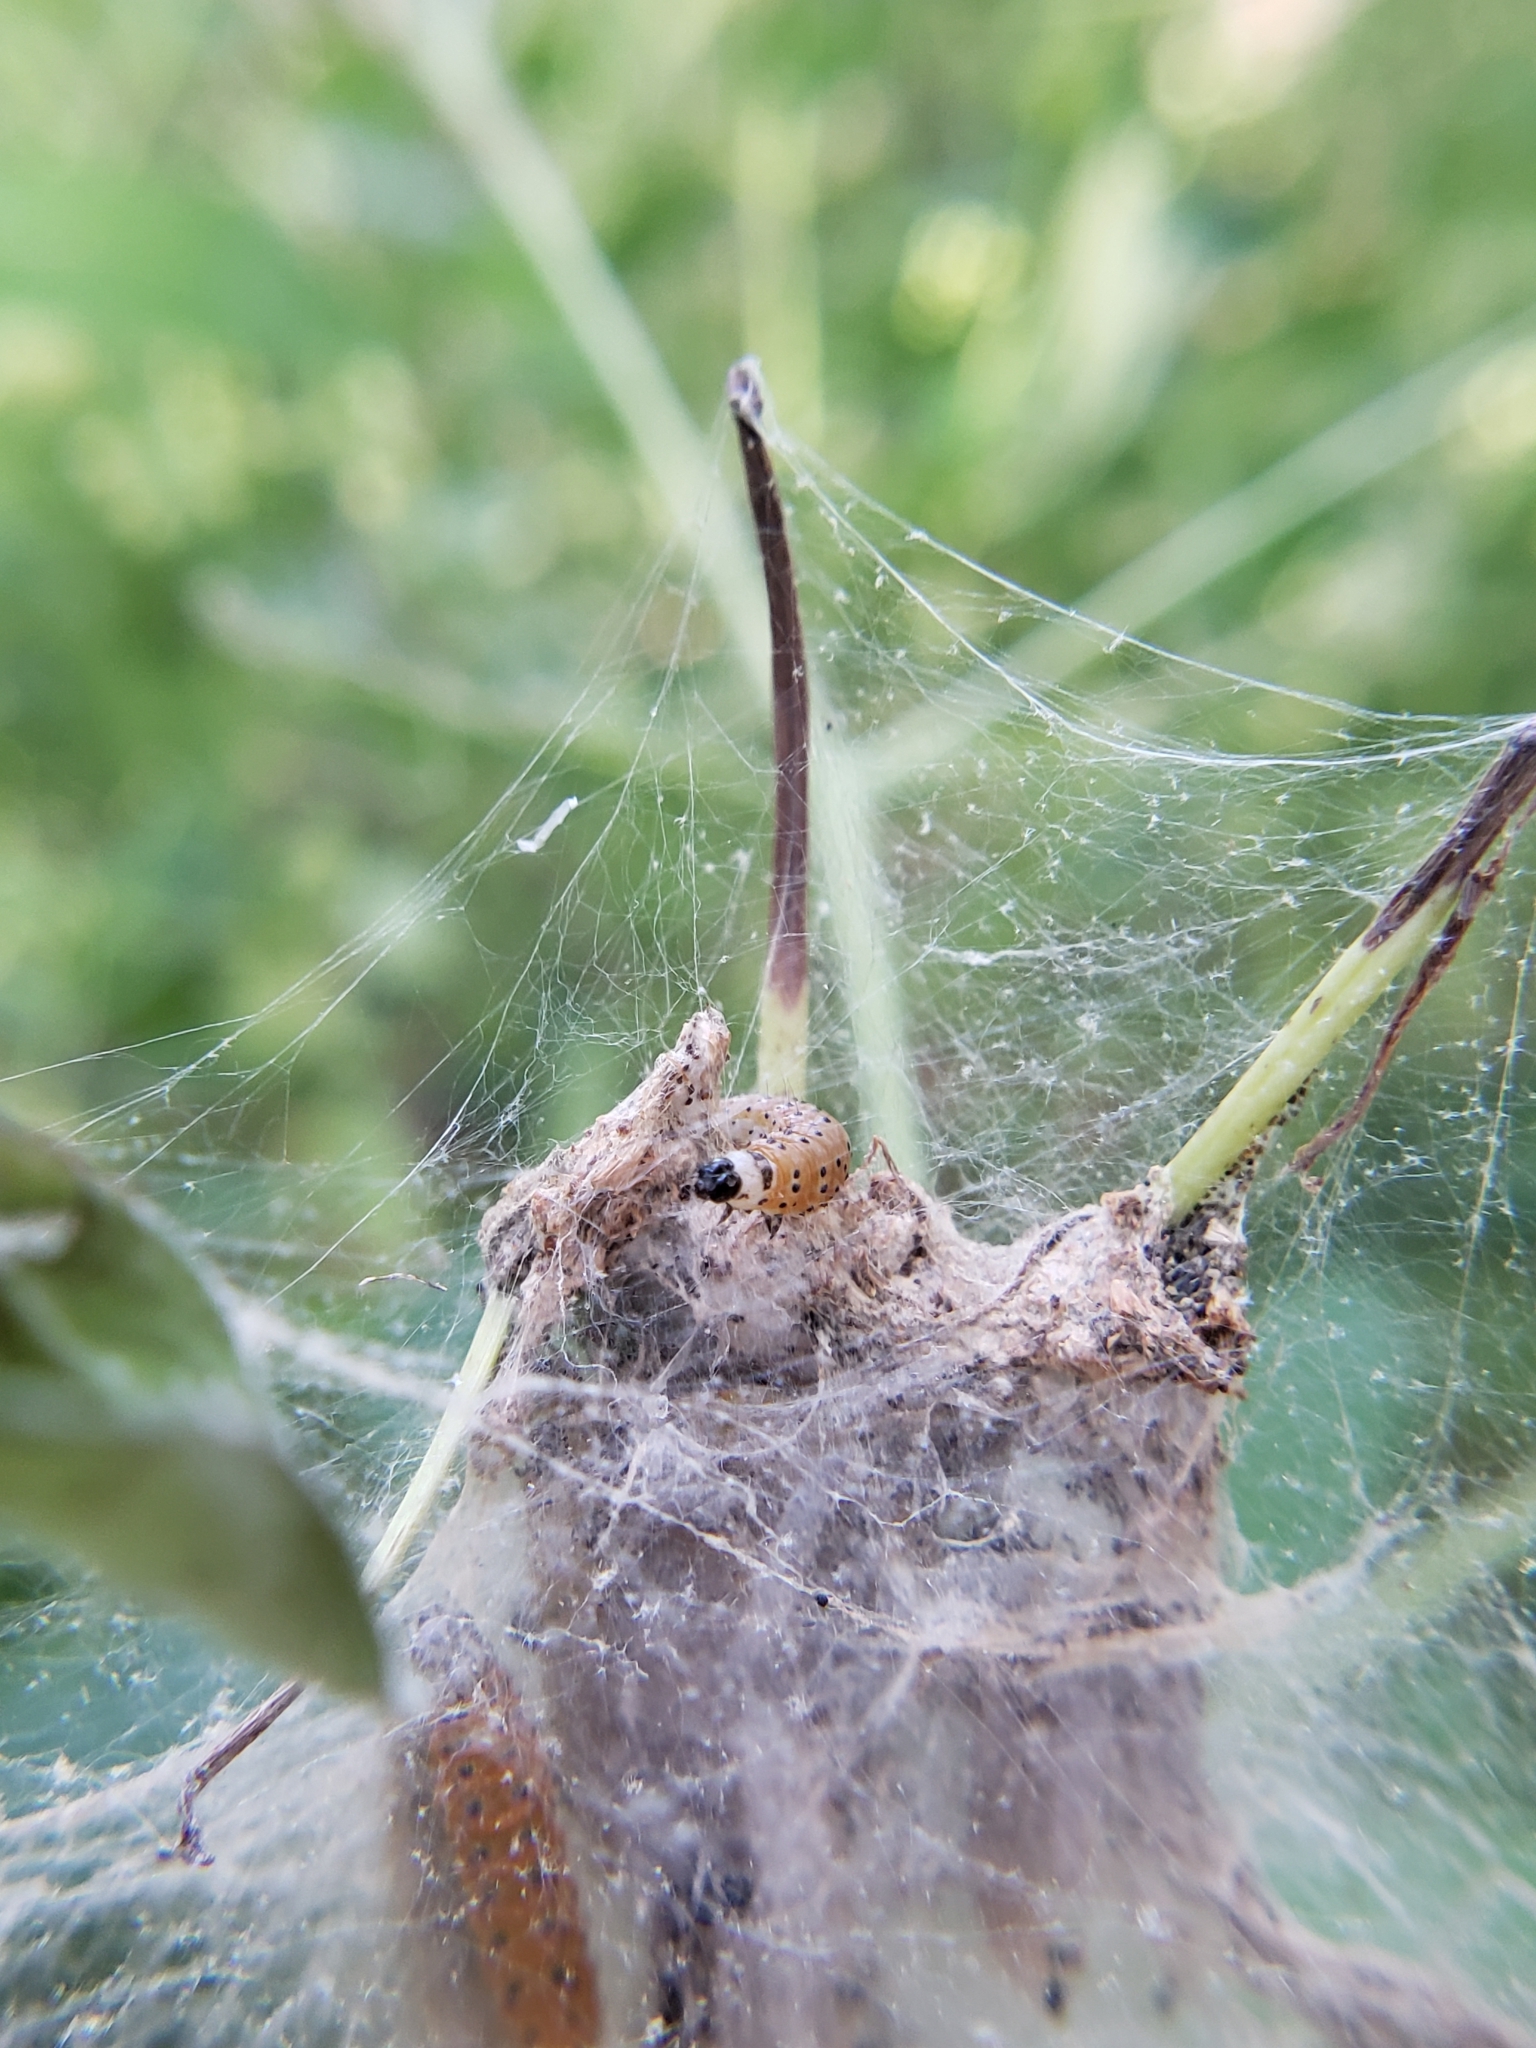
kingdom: Animalia
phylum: Arthropoda
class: Insecta
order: Lepidoptera
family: Crambidae
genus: Saucrobotys
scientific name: Saucrobotys futilalis
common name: Dogbane saucrobotys moth
